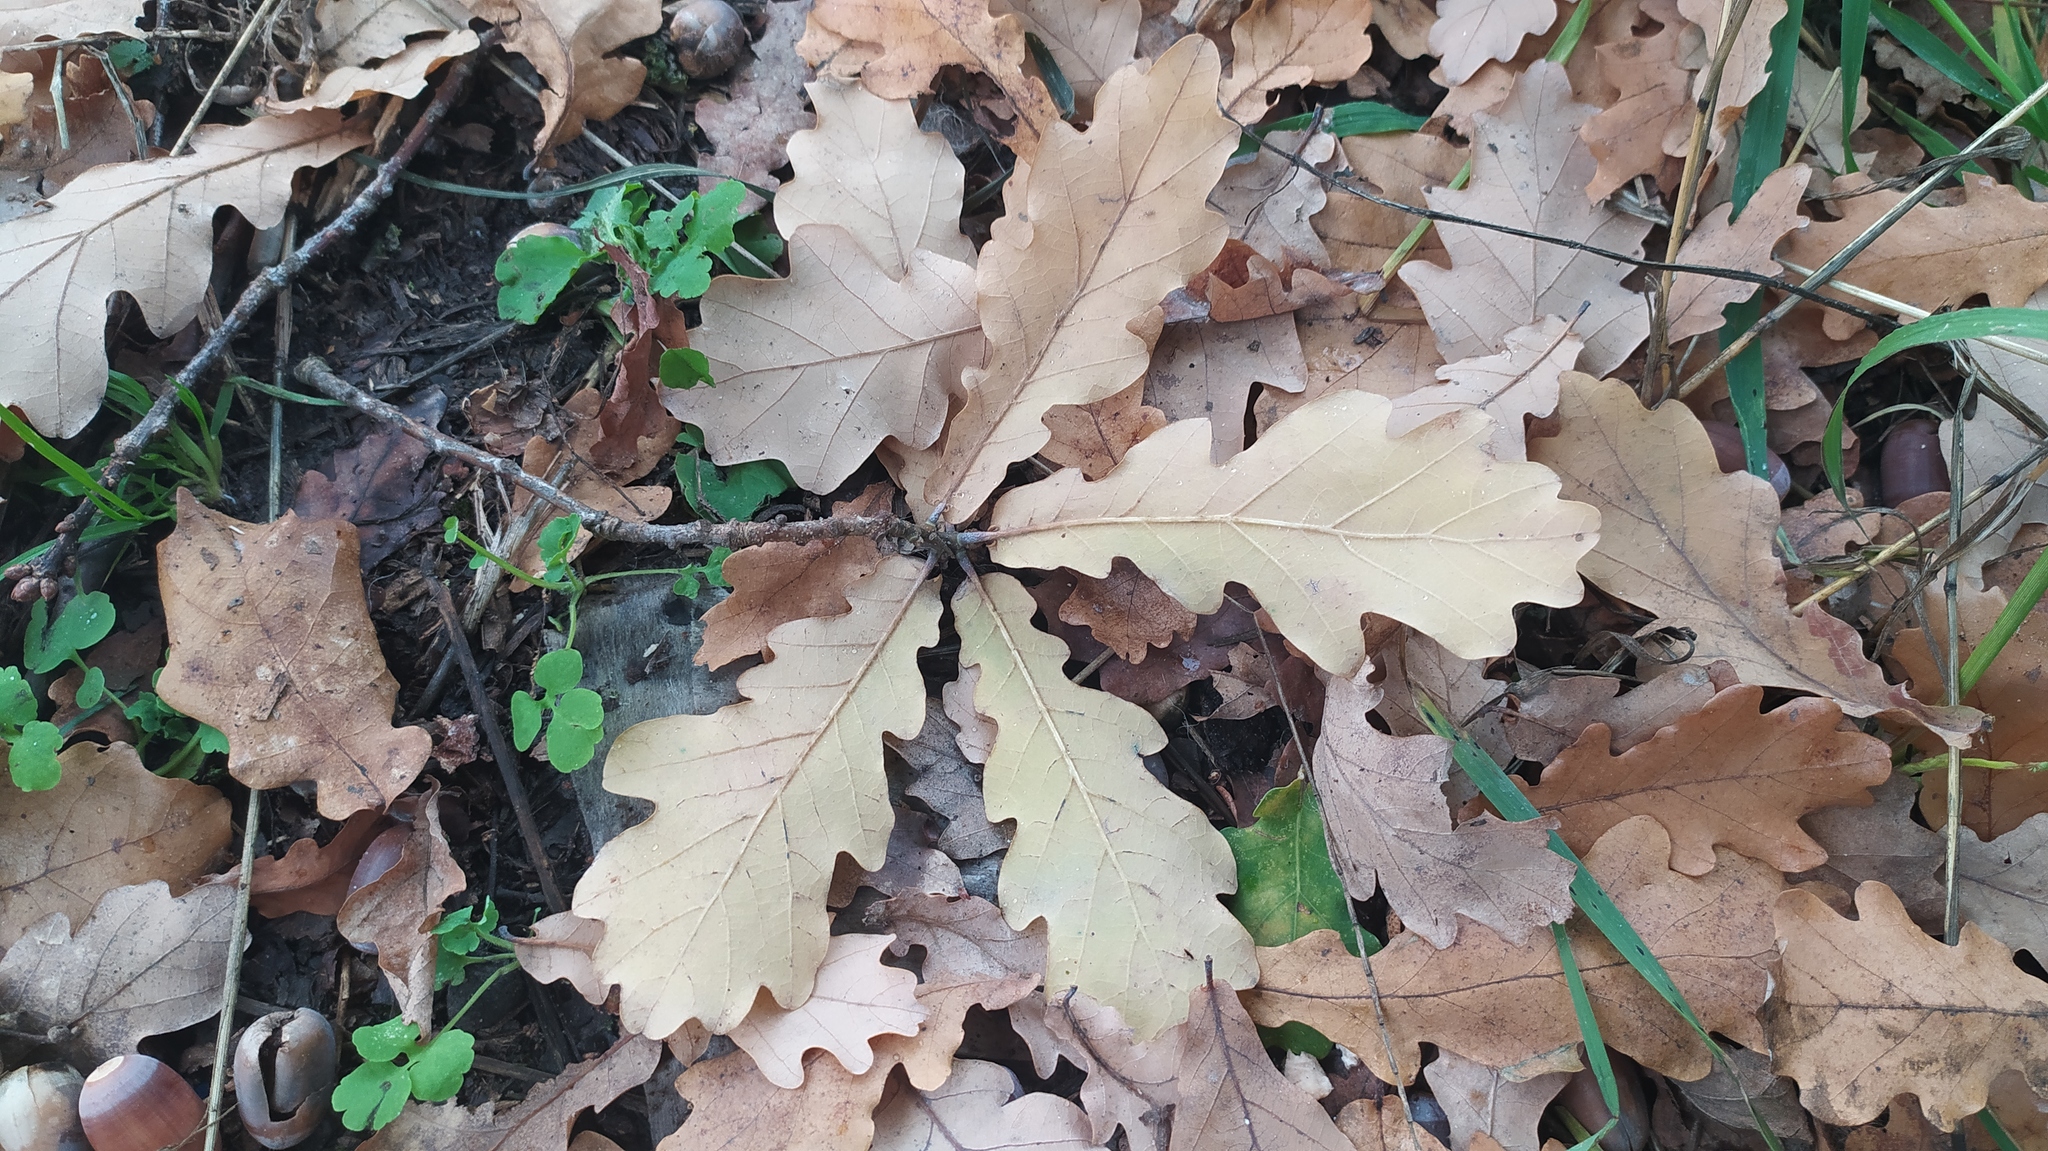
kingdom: Plantae
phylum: Tracheophyta
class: Magnoliopsida
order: Fagales
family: Fagaceae
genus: Quercus
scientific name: Quercus robur
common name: Pedunculate oak
